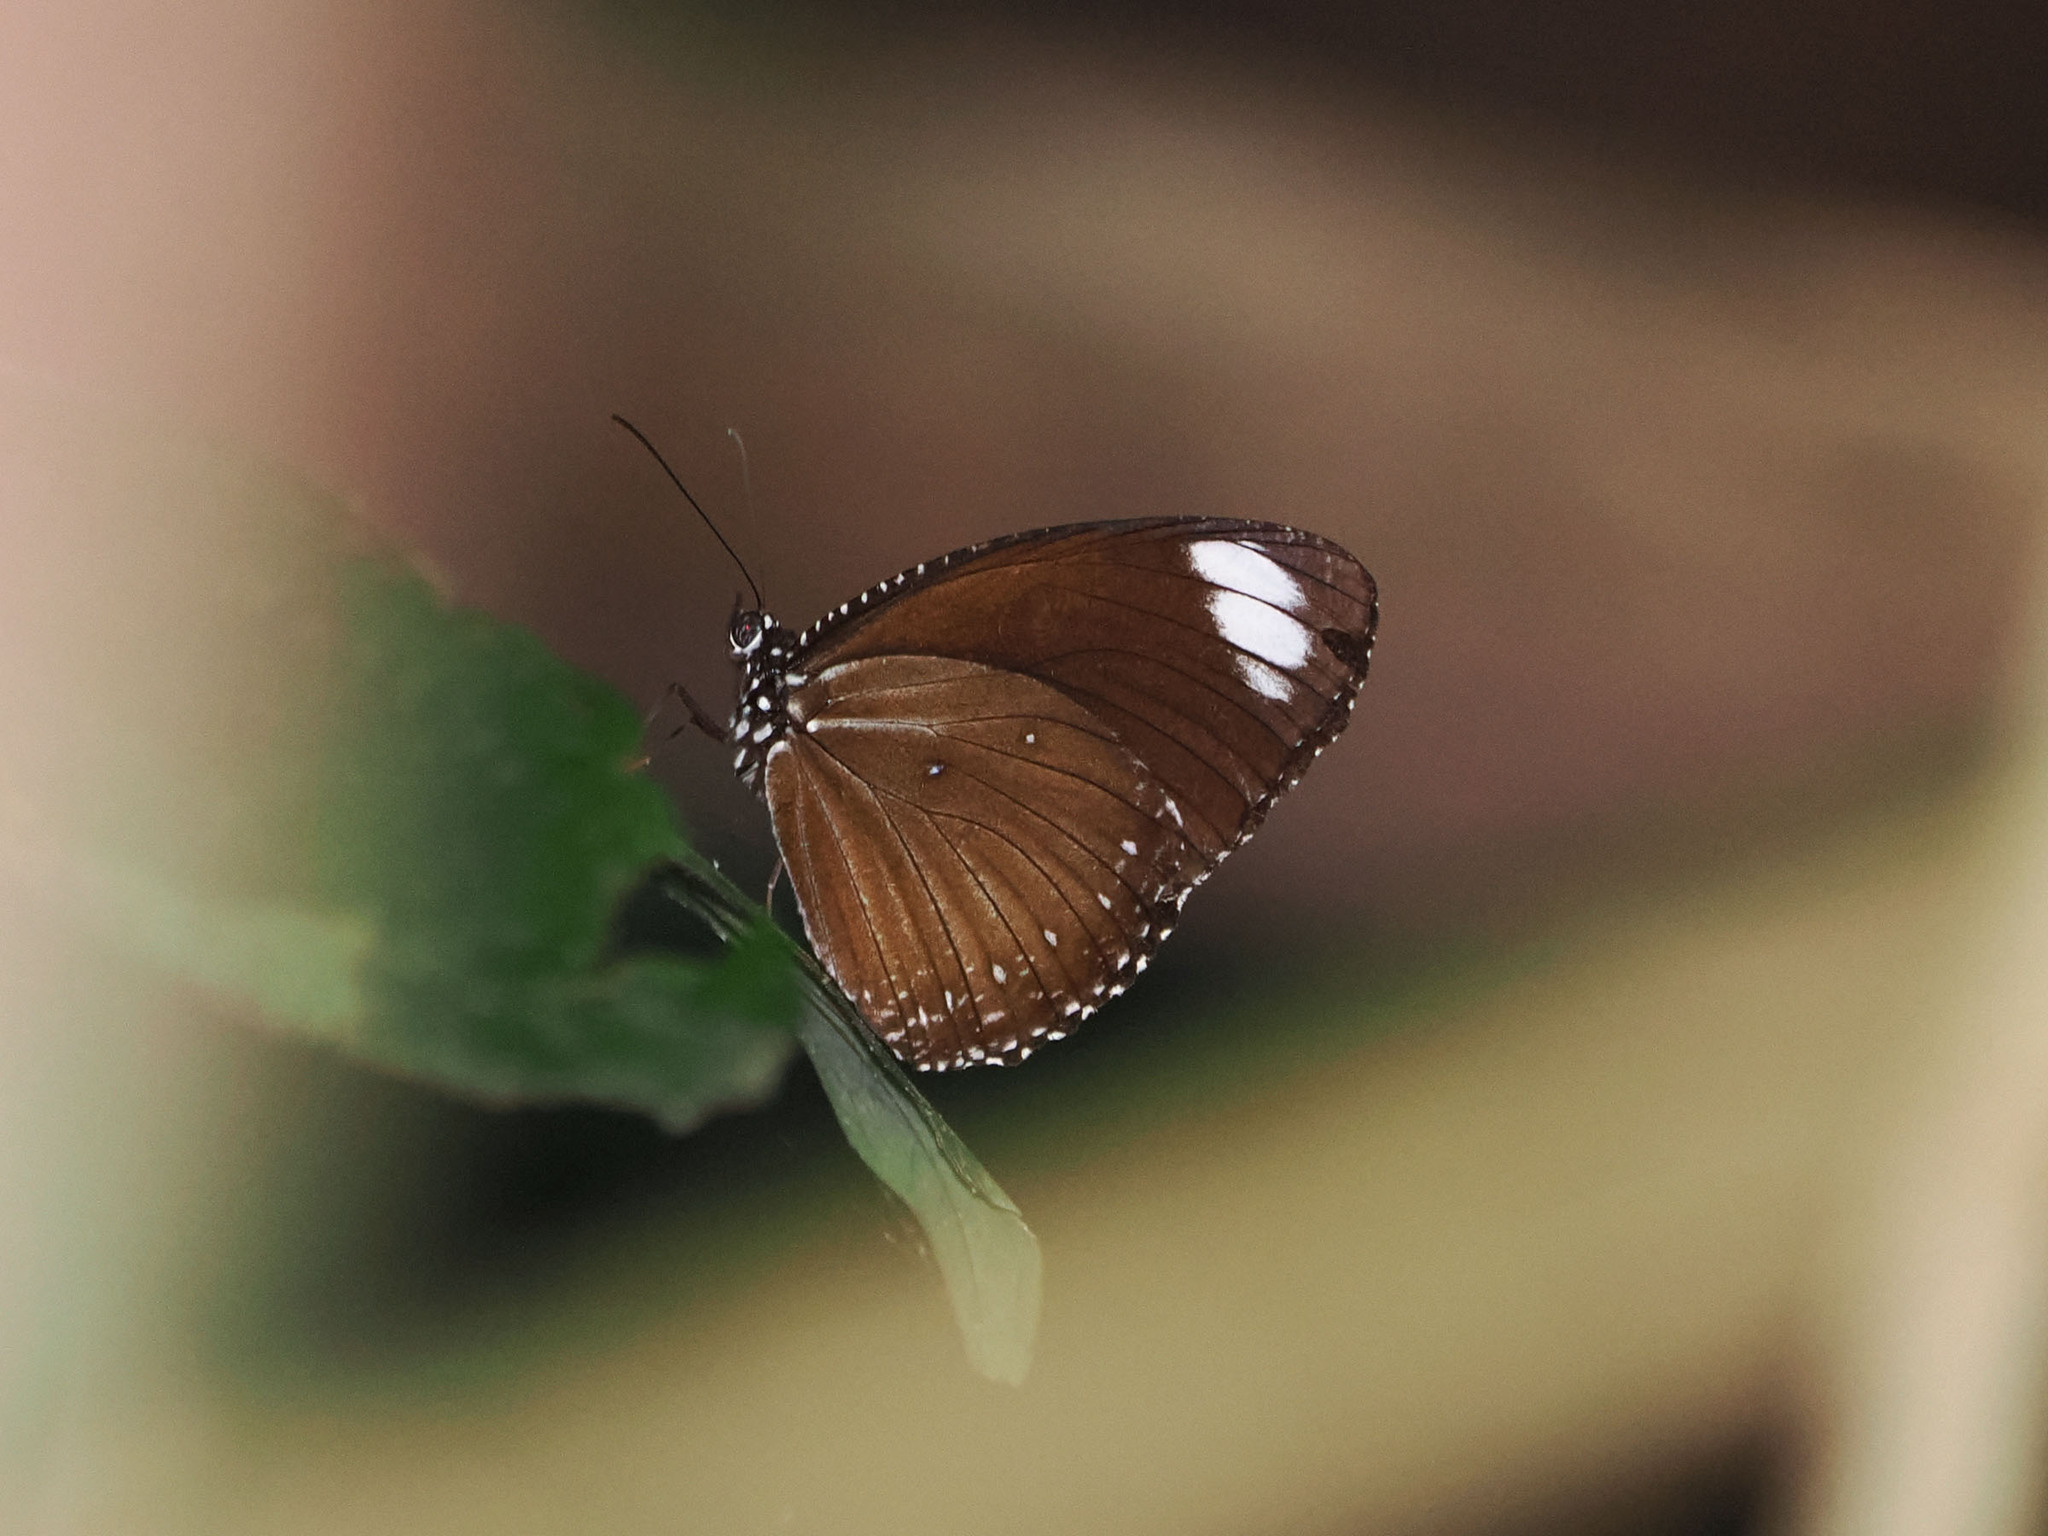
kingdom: Animalia
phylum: Arthropoda
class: Insecta
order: Lepidoptera
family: Nymphalidae
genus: Elymnias
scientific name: Elymnias melias
